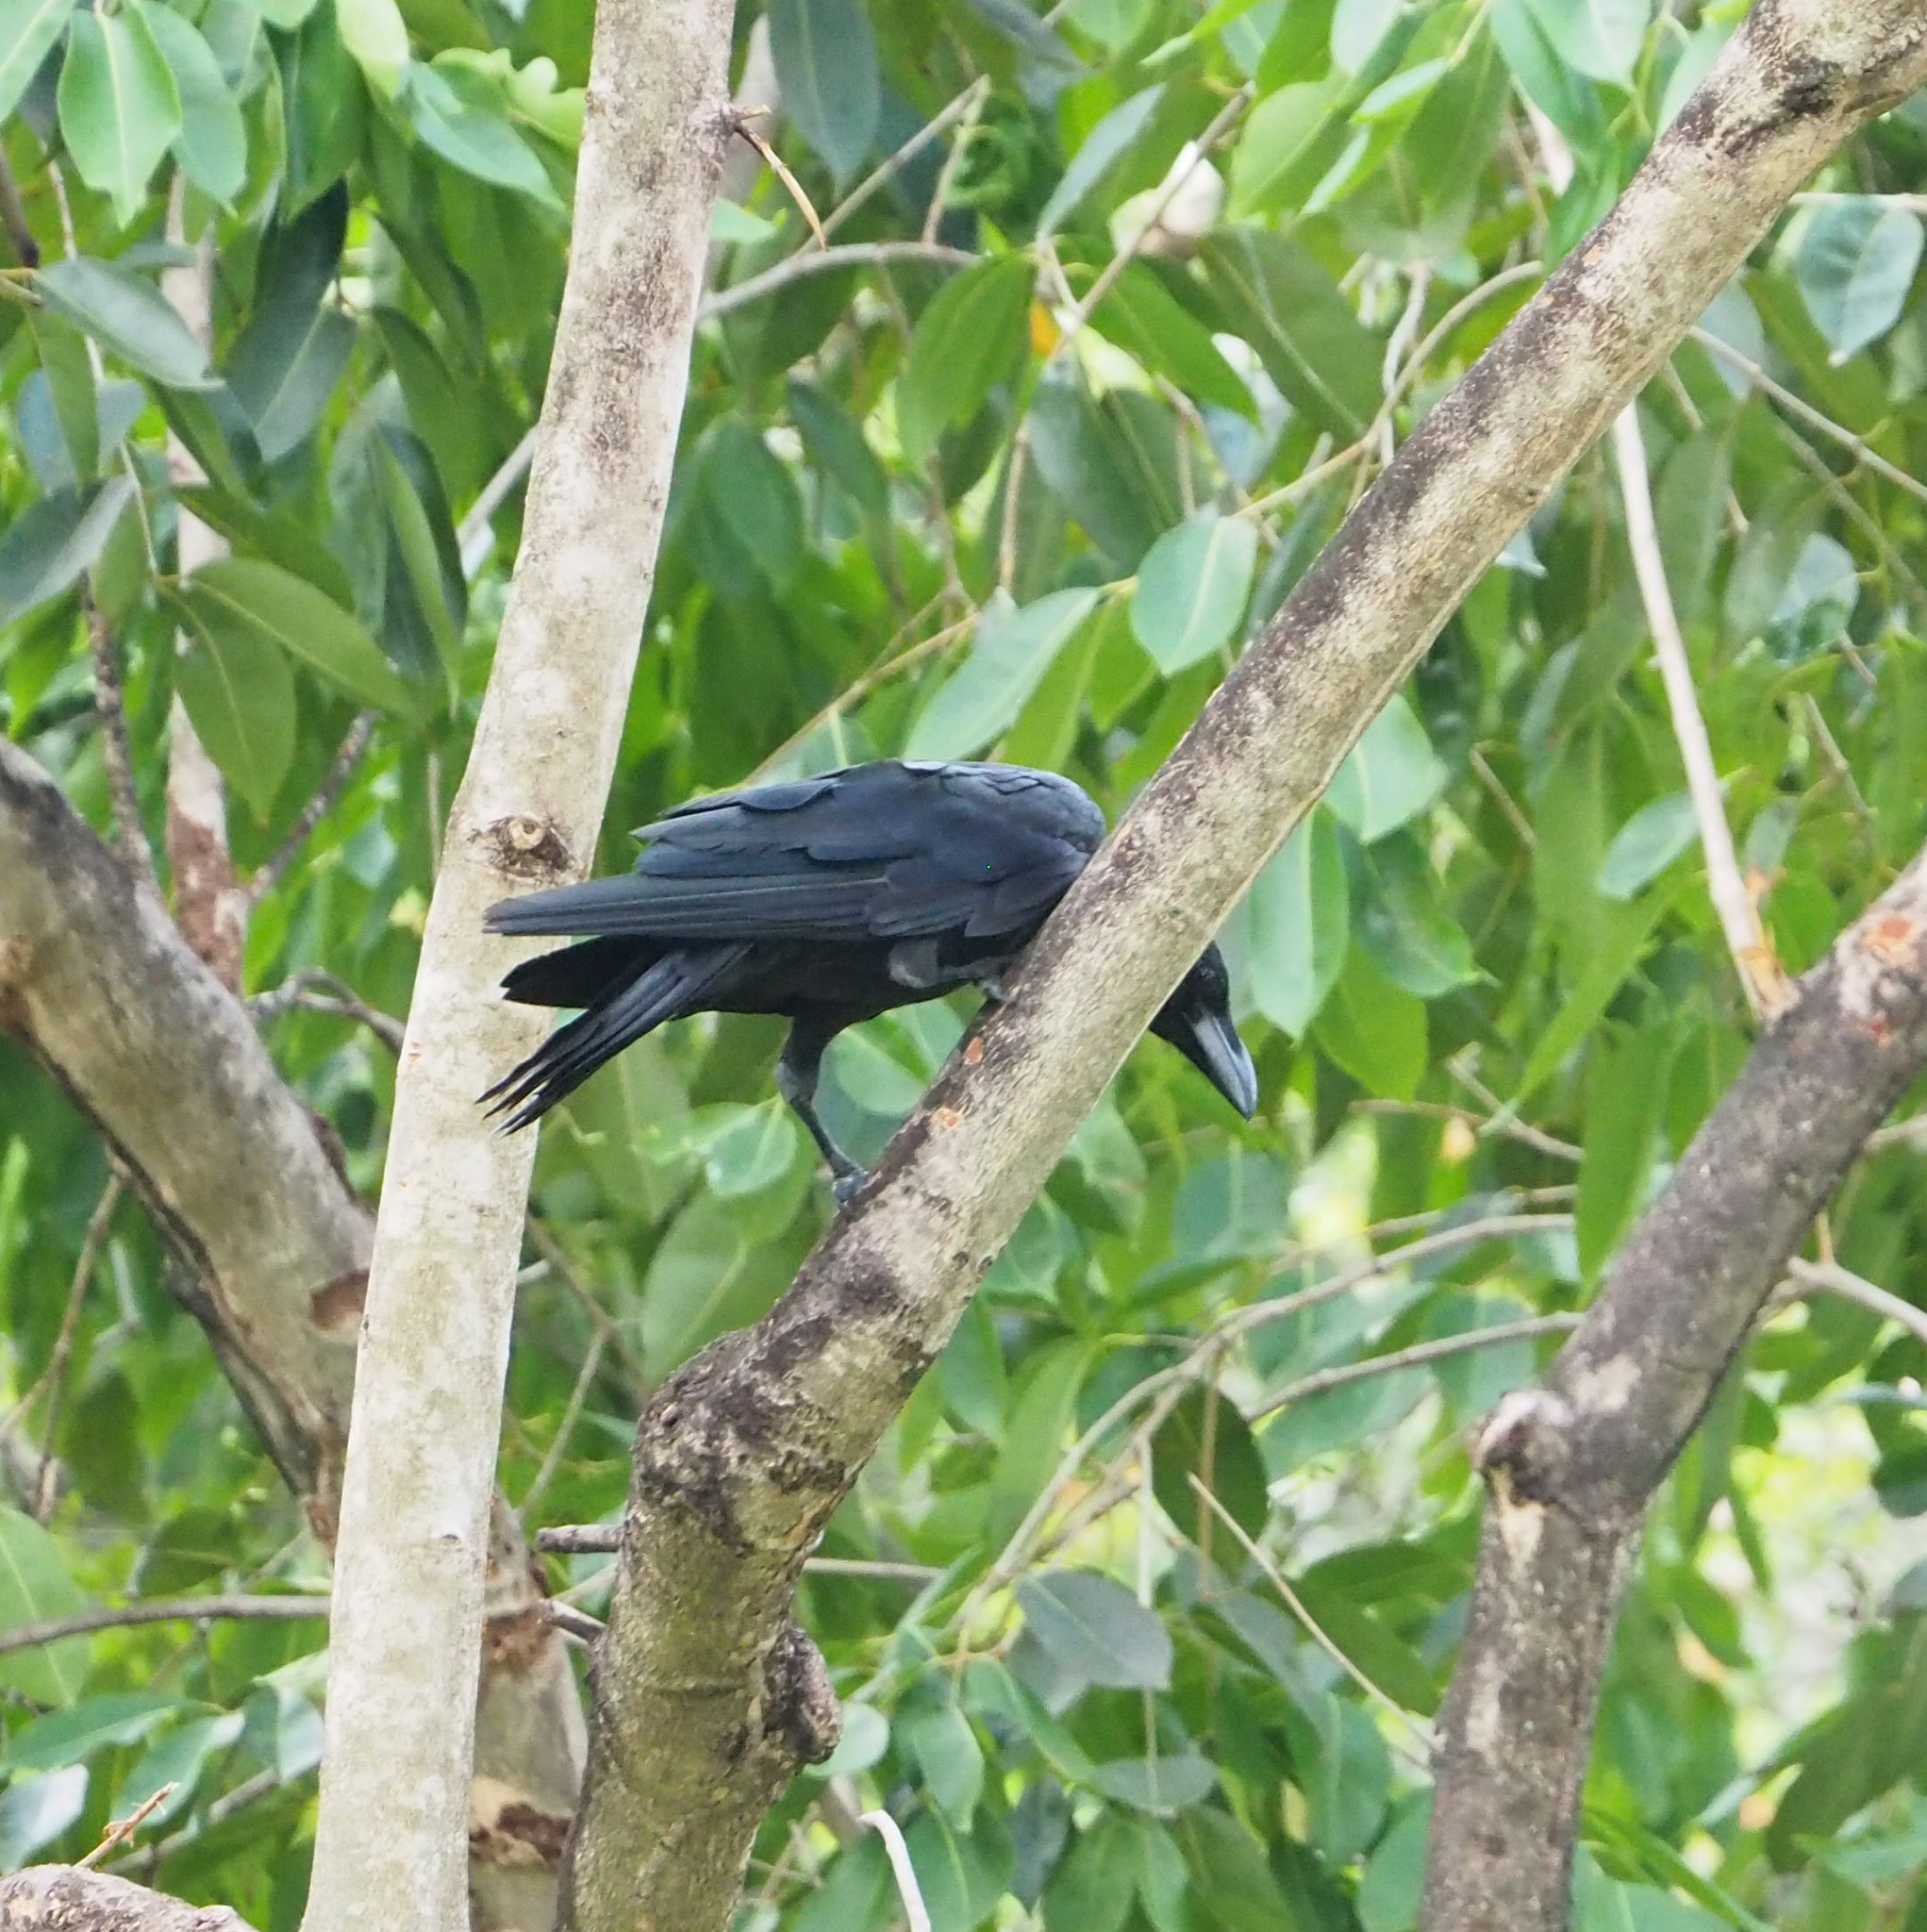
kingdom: Animalia
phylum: Chordata
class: Aves
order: Passeriformes
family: Corvidae
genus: Corvus
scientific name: Corvus macrorhynchos
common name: Large-billed crow
